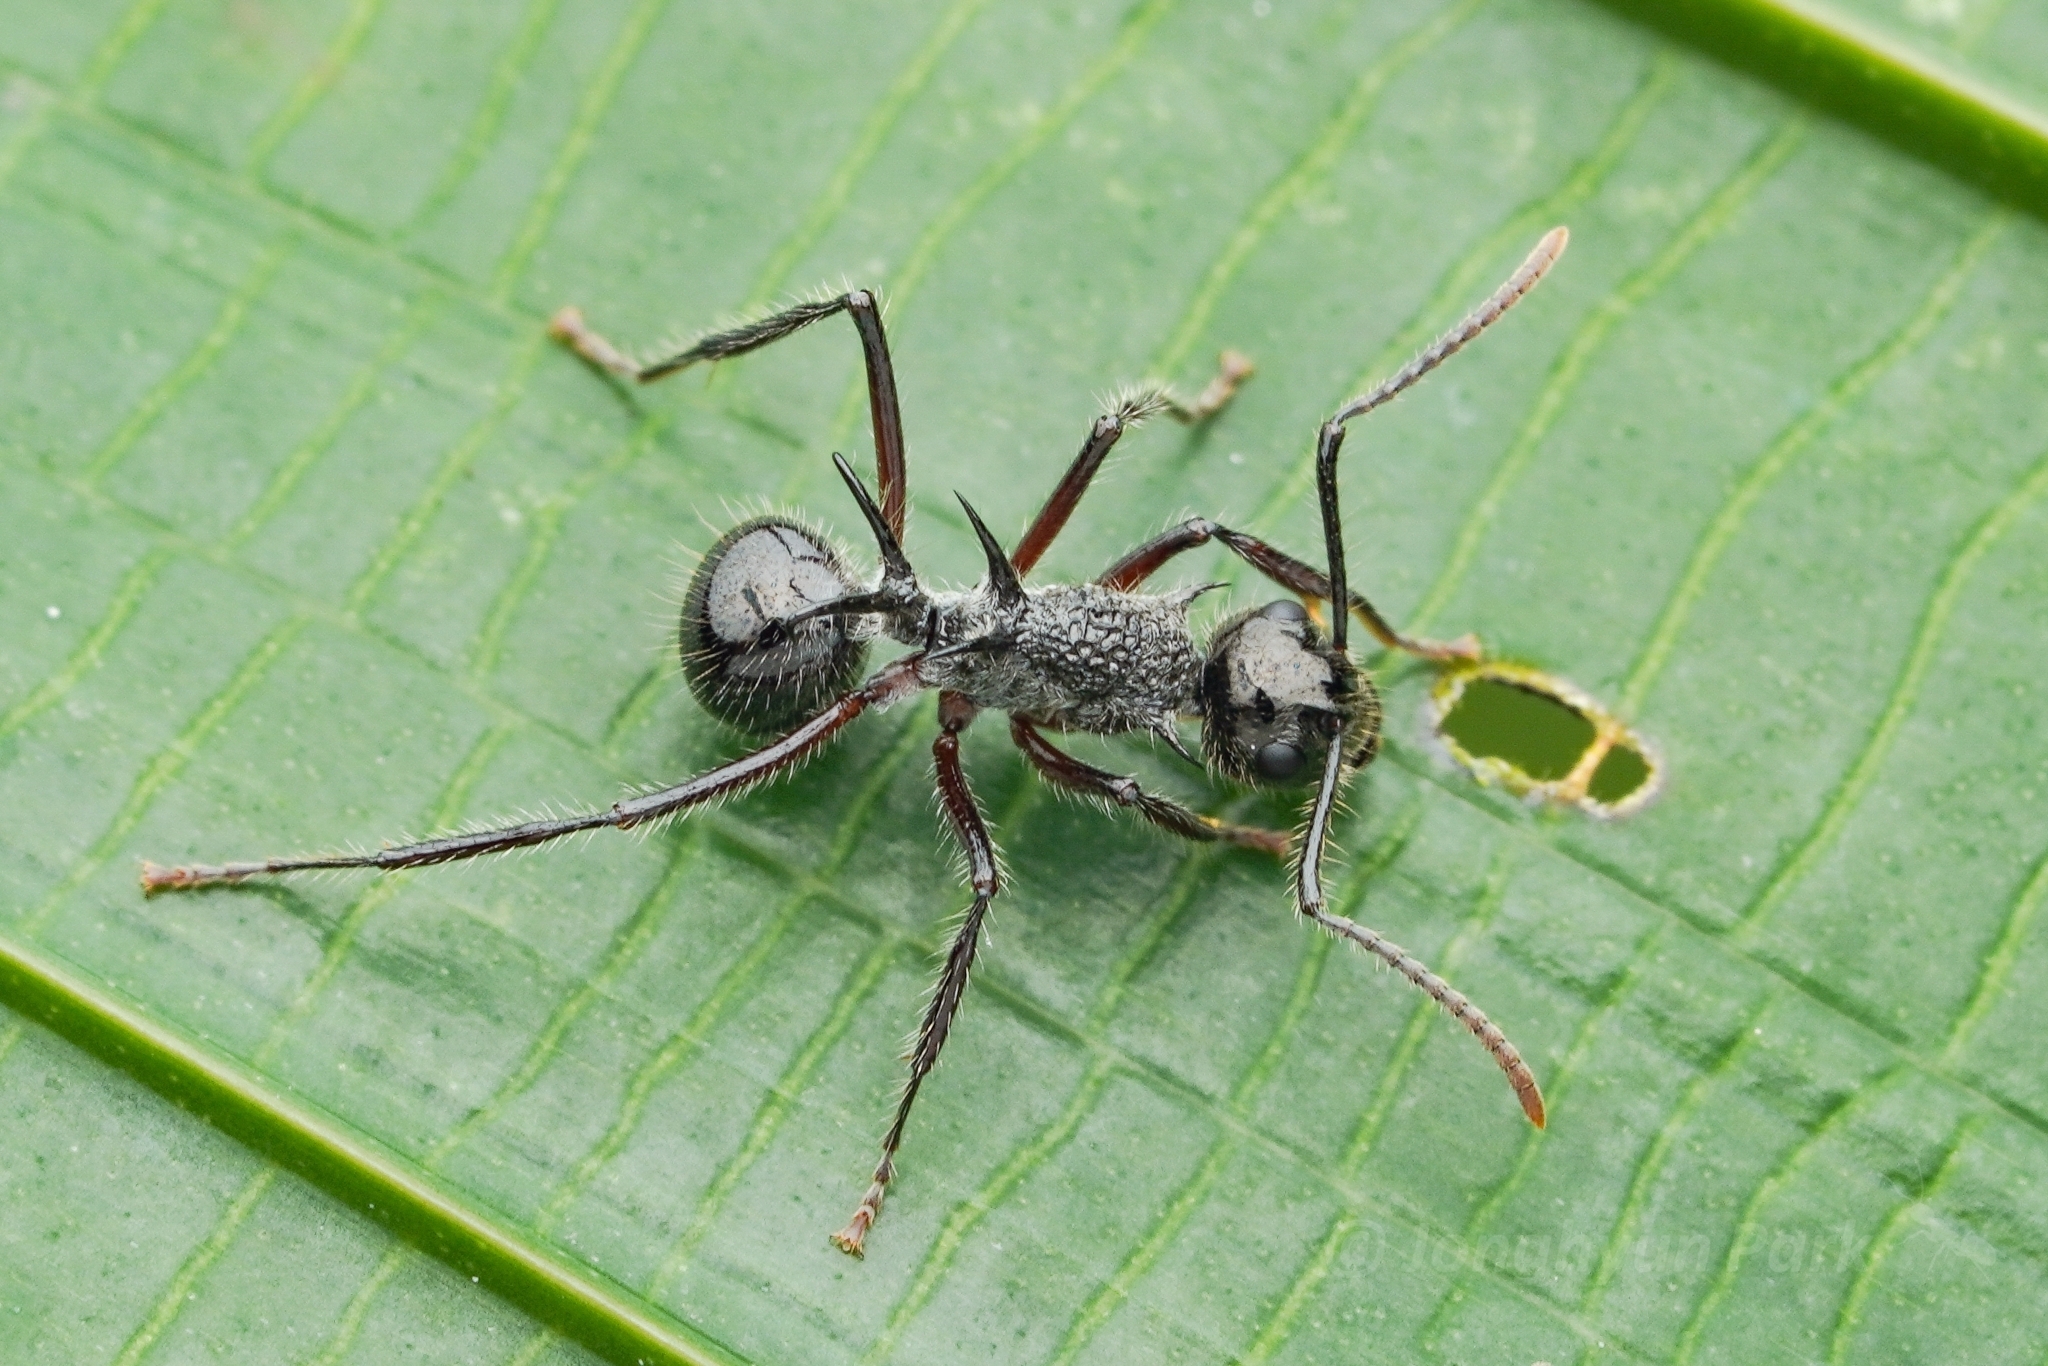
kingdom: Animalia
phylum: Arthropoda
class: Insecta
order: Hymenoptera
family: Formicidae
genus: Polyrhachis
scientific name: Polyrhachis furcata
